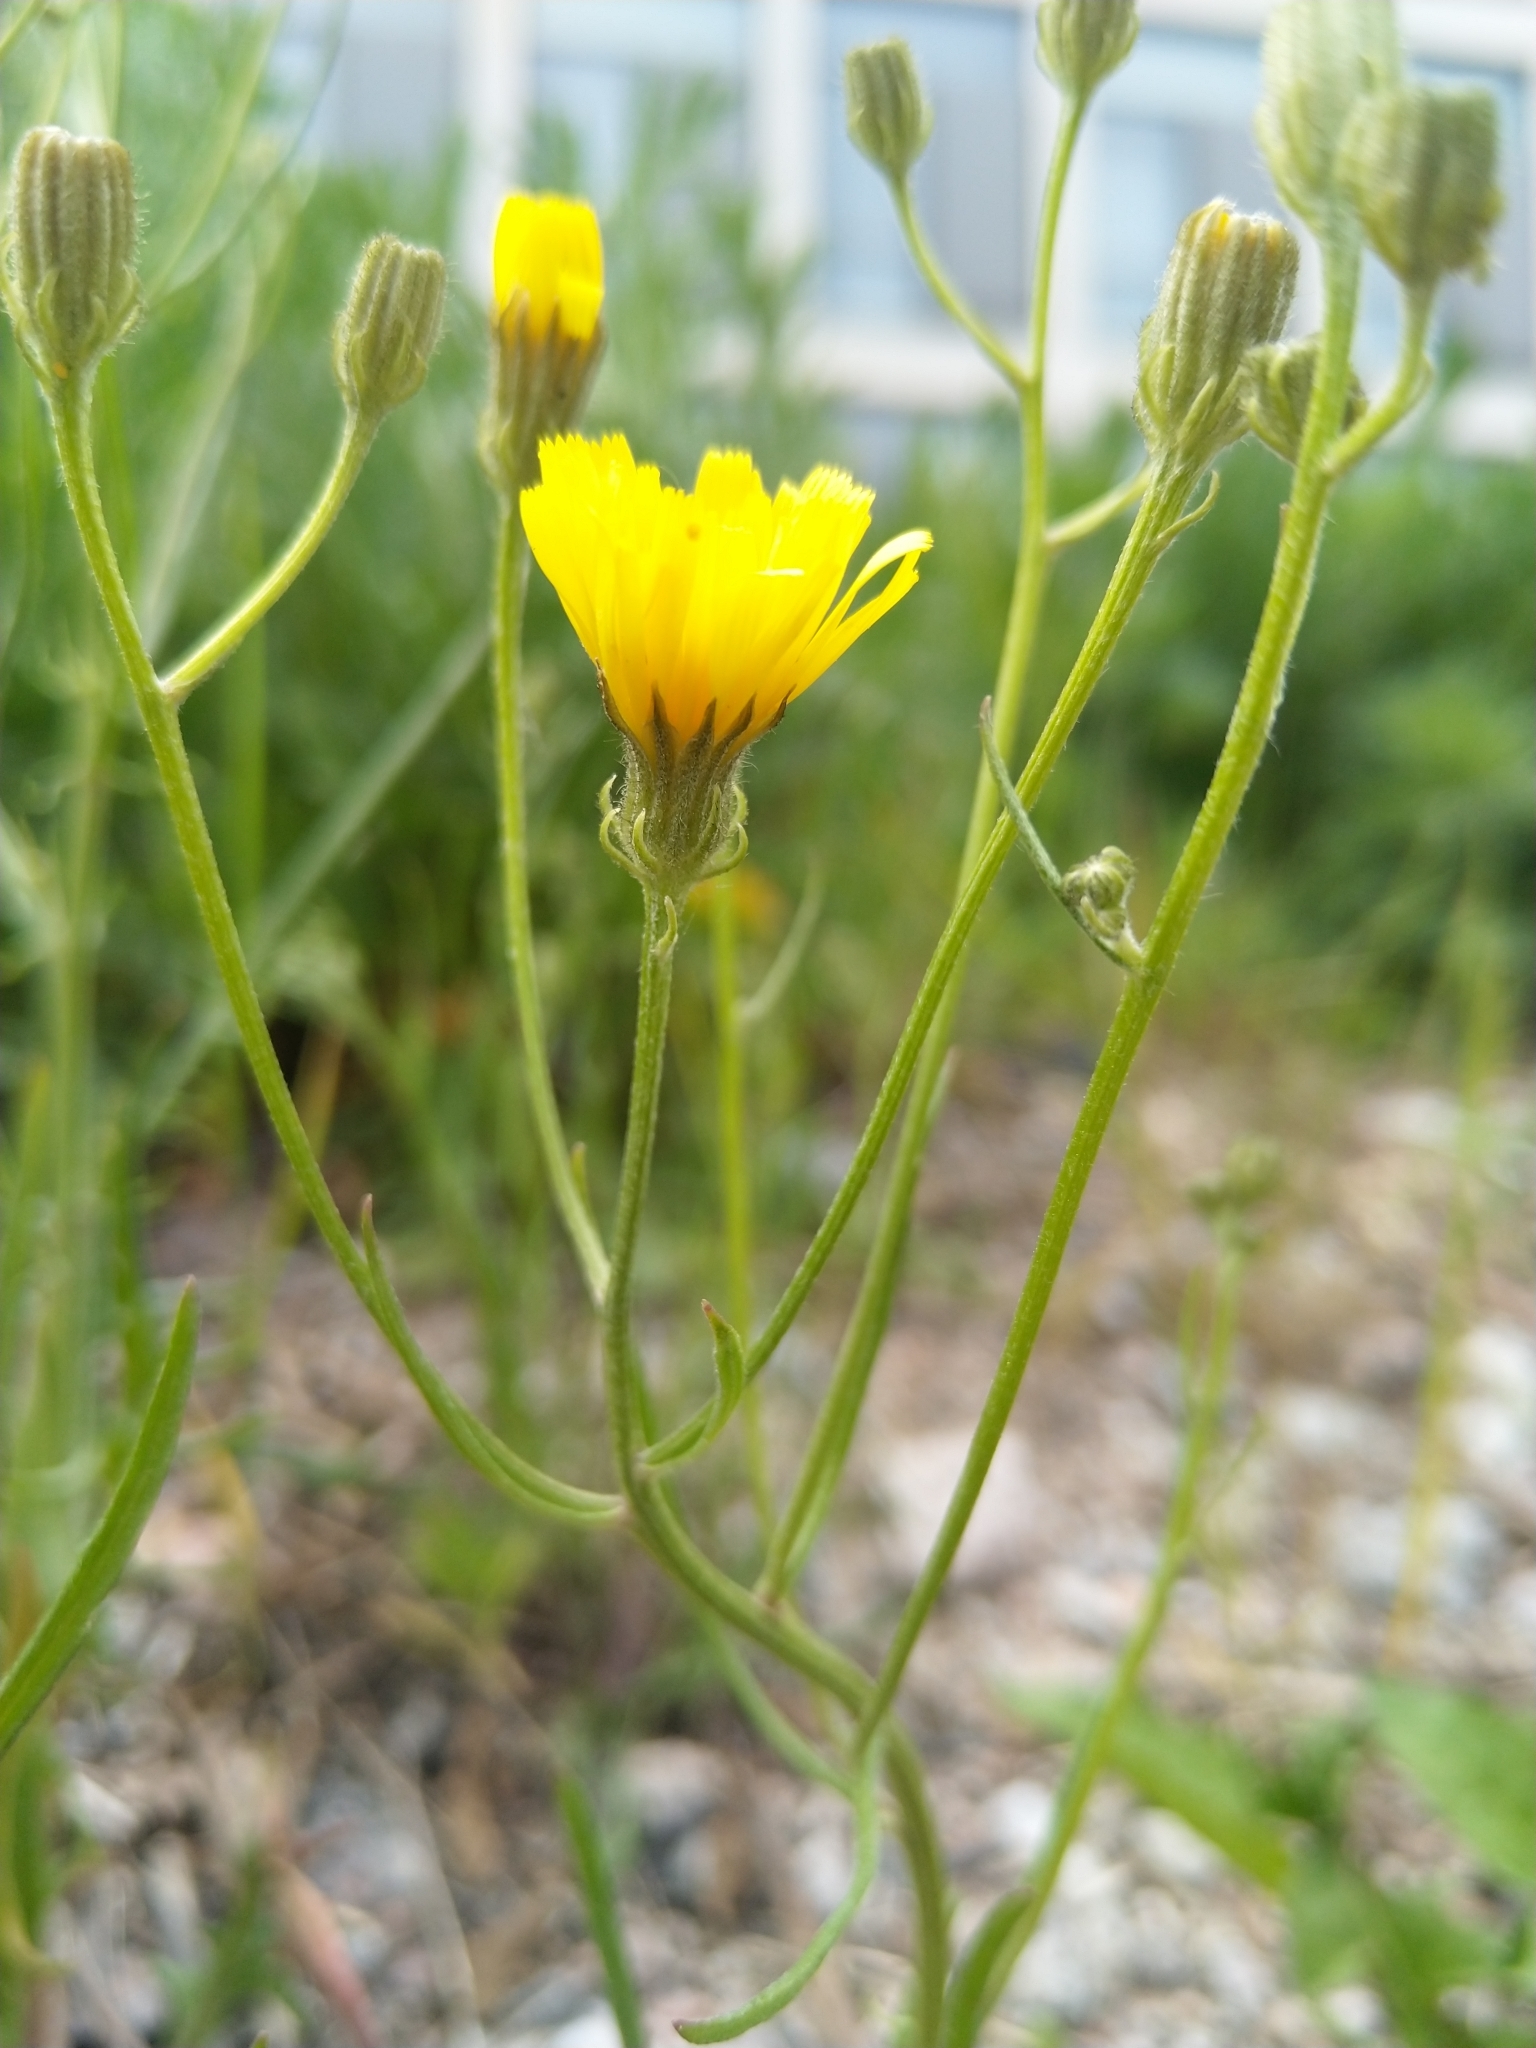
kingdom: Plantae
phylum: Tracheophyta
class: Magnoliopsida
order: Asterales
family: Asteraceae
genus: Crepis
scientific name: Crepis tectorum
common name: Narrow-leaved hawk's-beard
